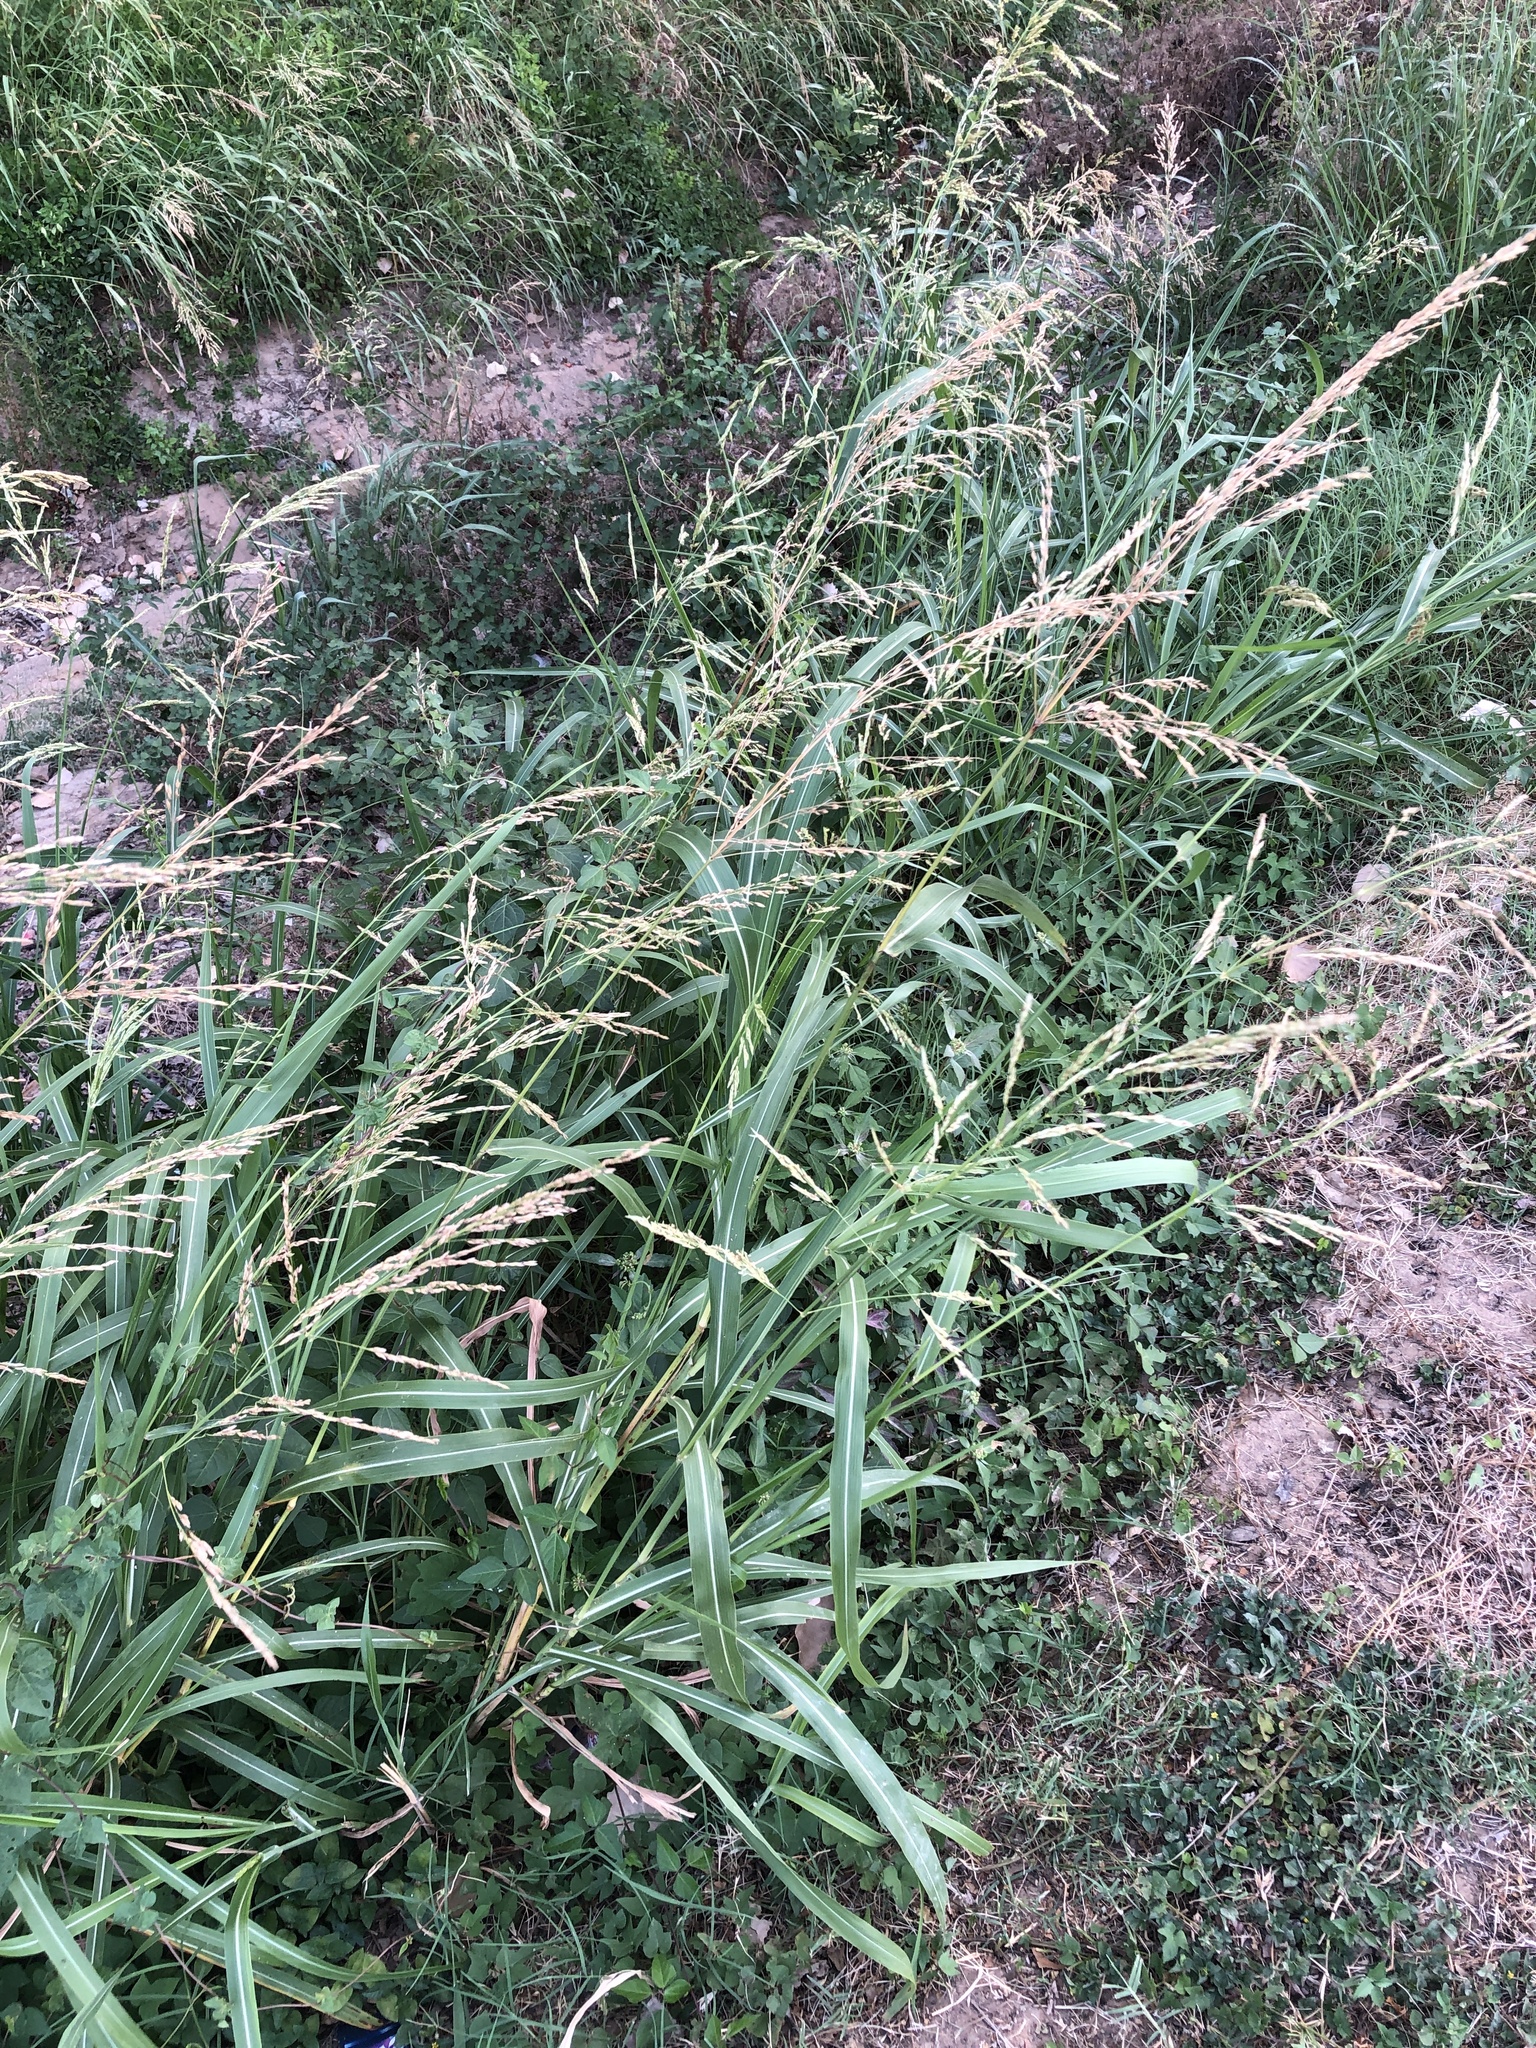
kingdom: Plantae
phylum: Tracheophyta
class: Liliopsida
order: Poales
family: Poaceae
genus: Sorghum
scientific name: Sorghum halepense
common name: Johnson-grass
